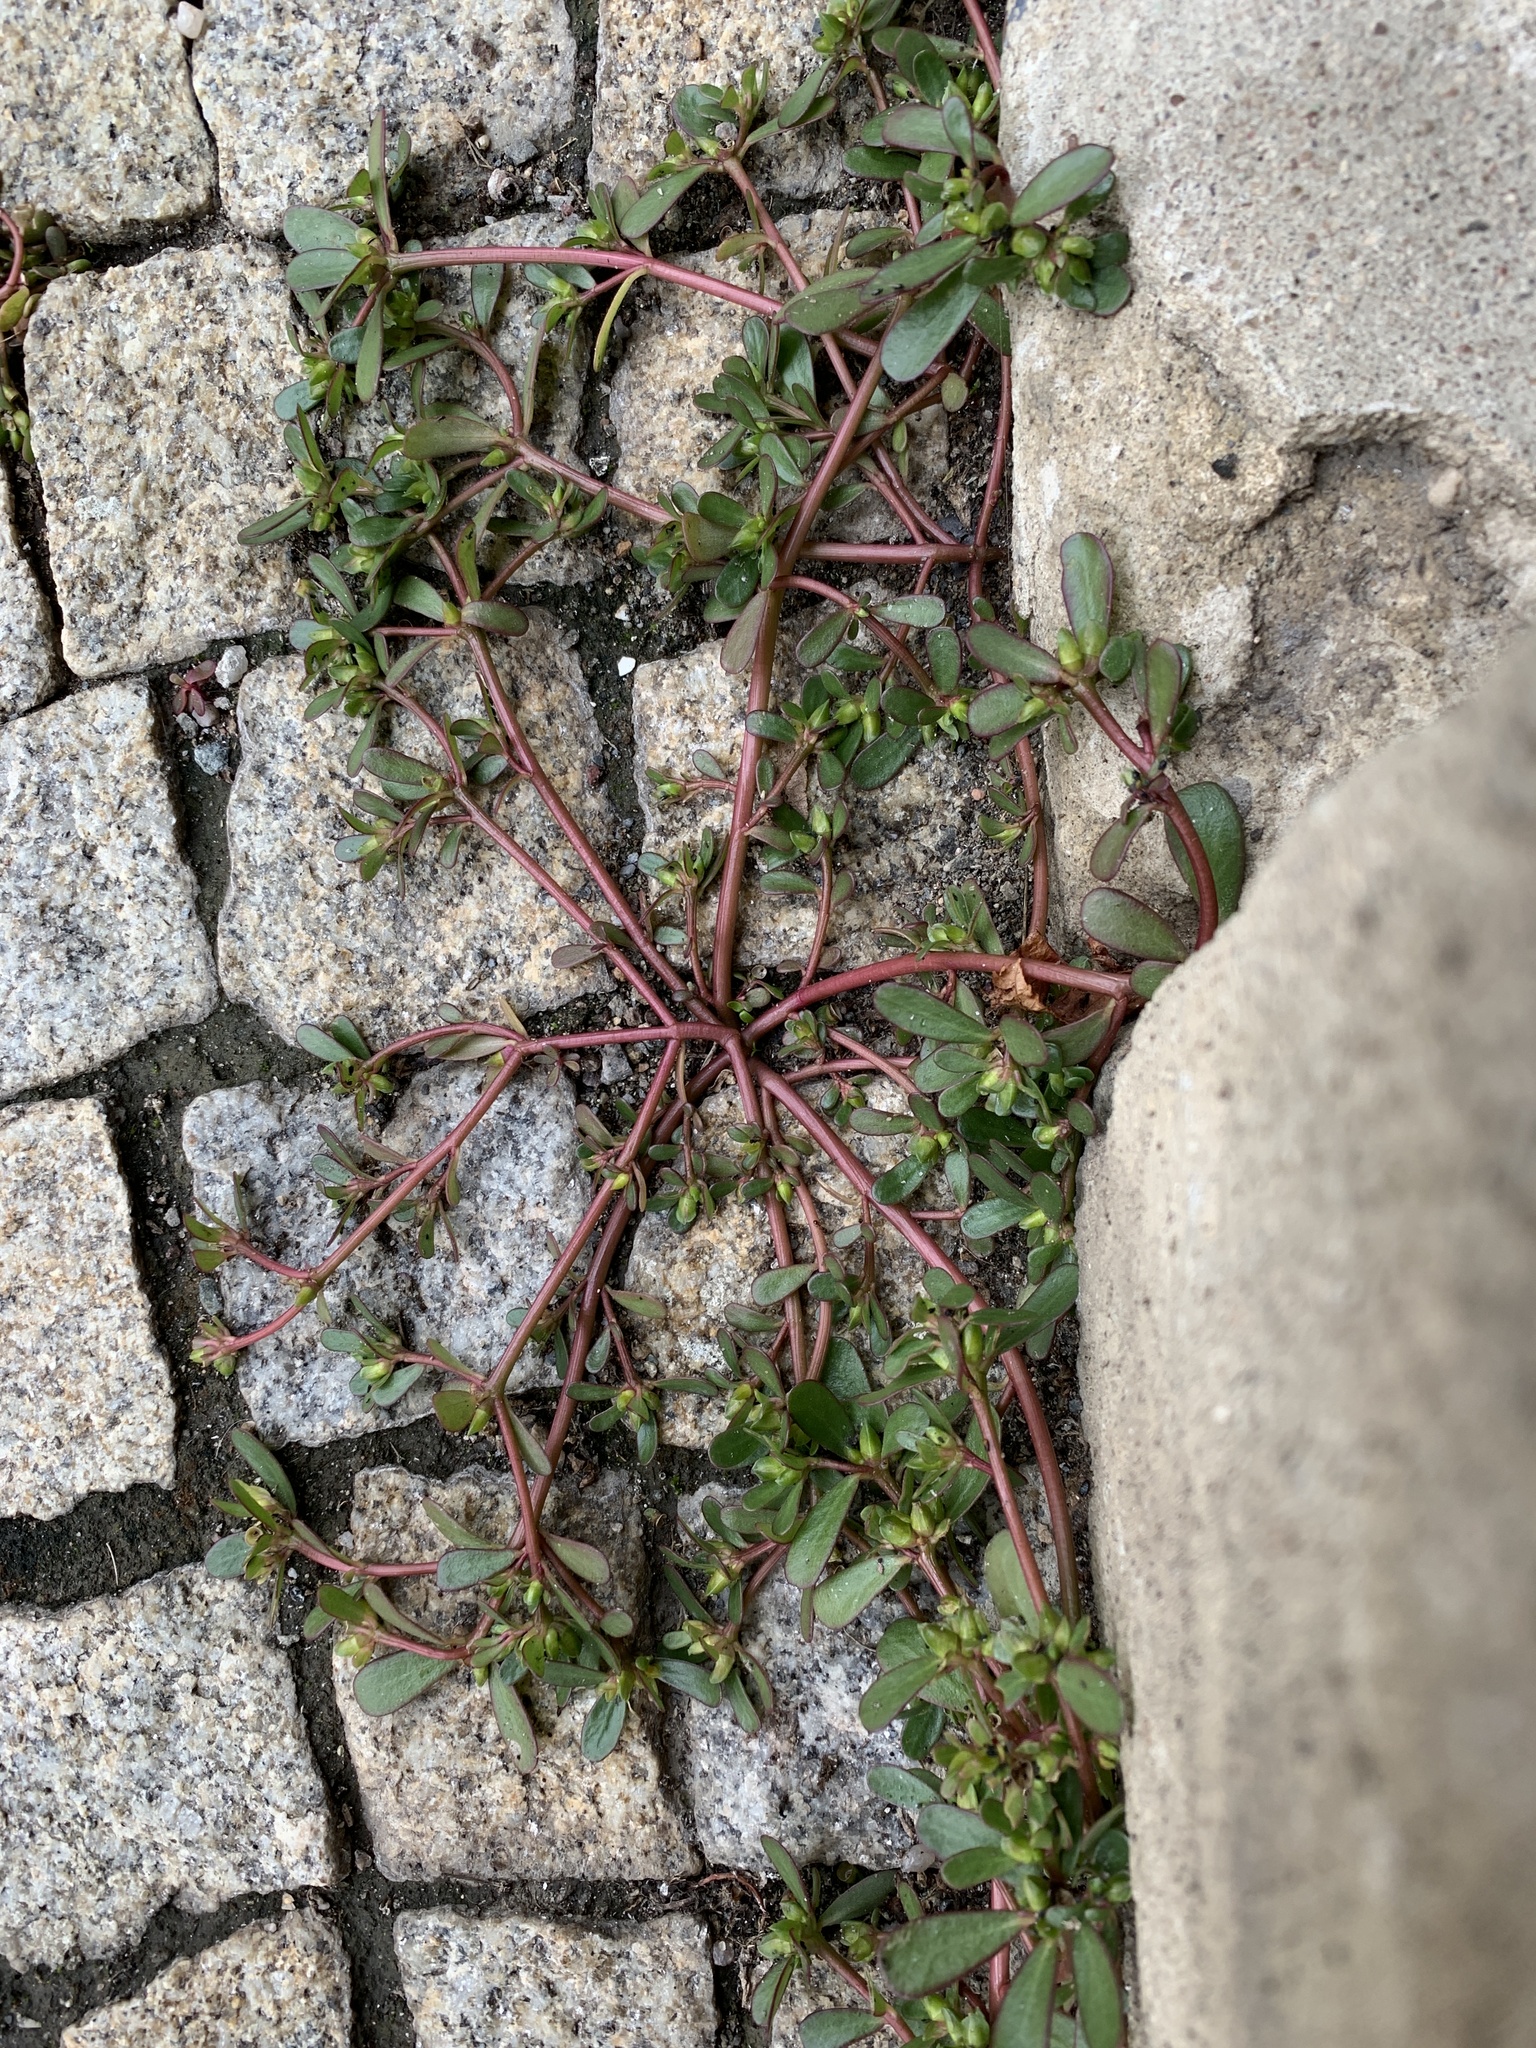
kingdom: Plantae
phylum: Tracheophyta
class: Magnoliopsida
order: Caryophyllales
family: Portulacaceae
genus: Portulaca
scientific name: Portulaca oleracea
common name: Common purslane
